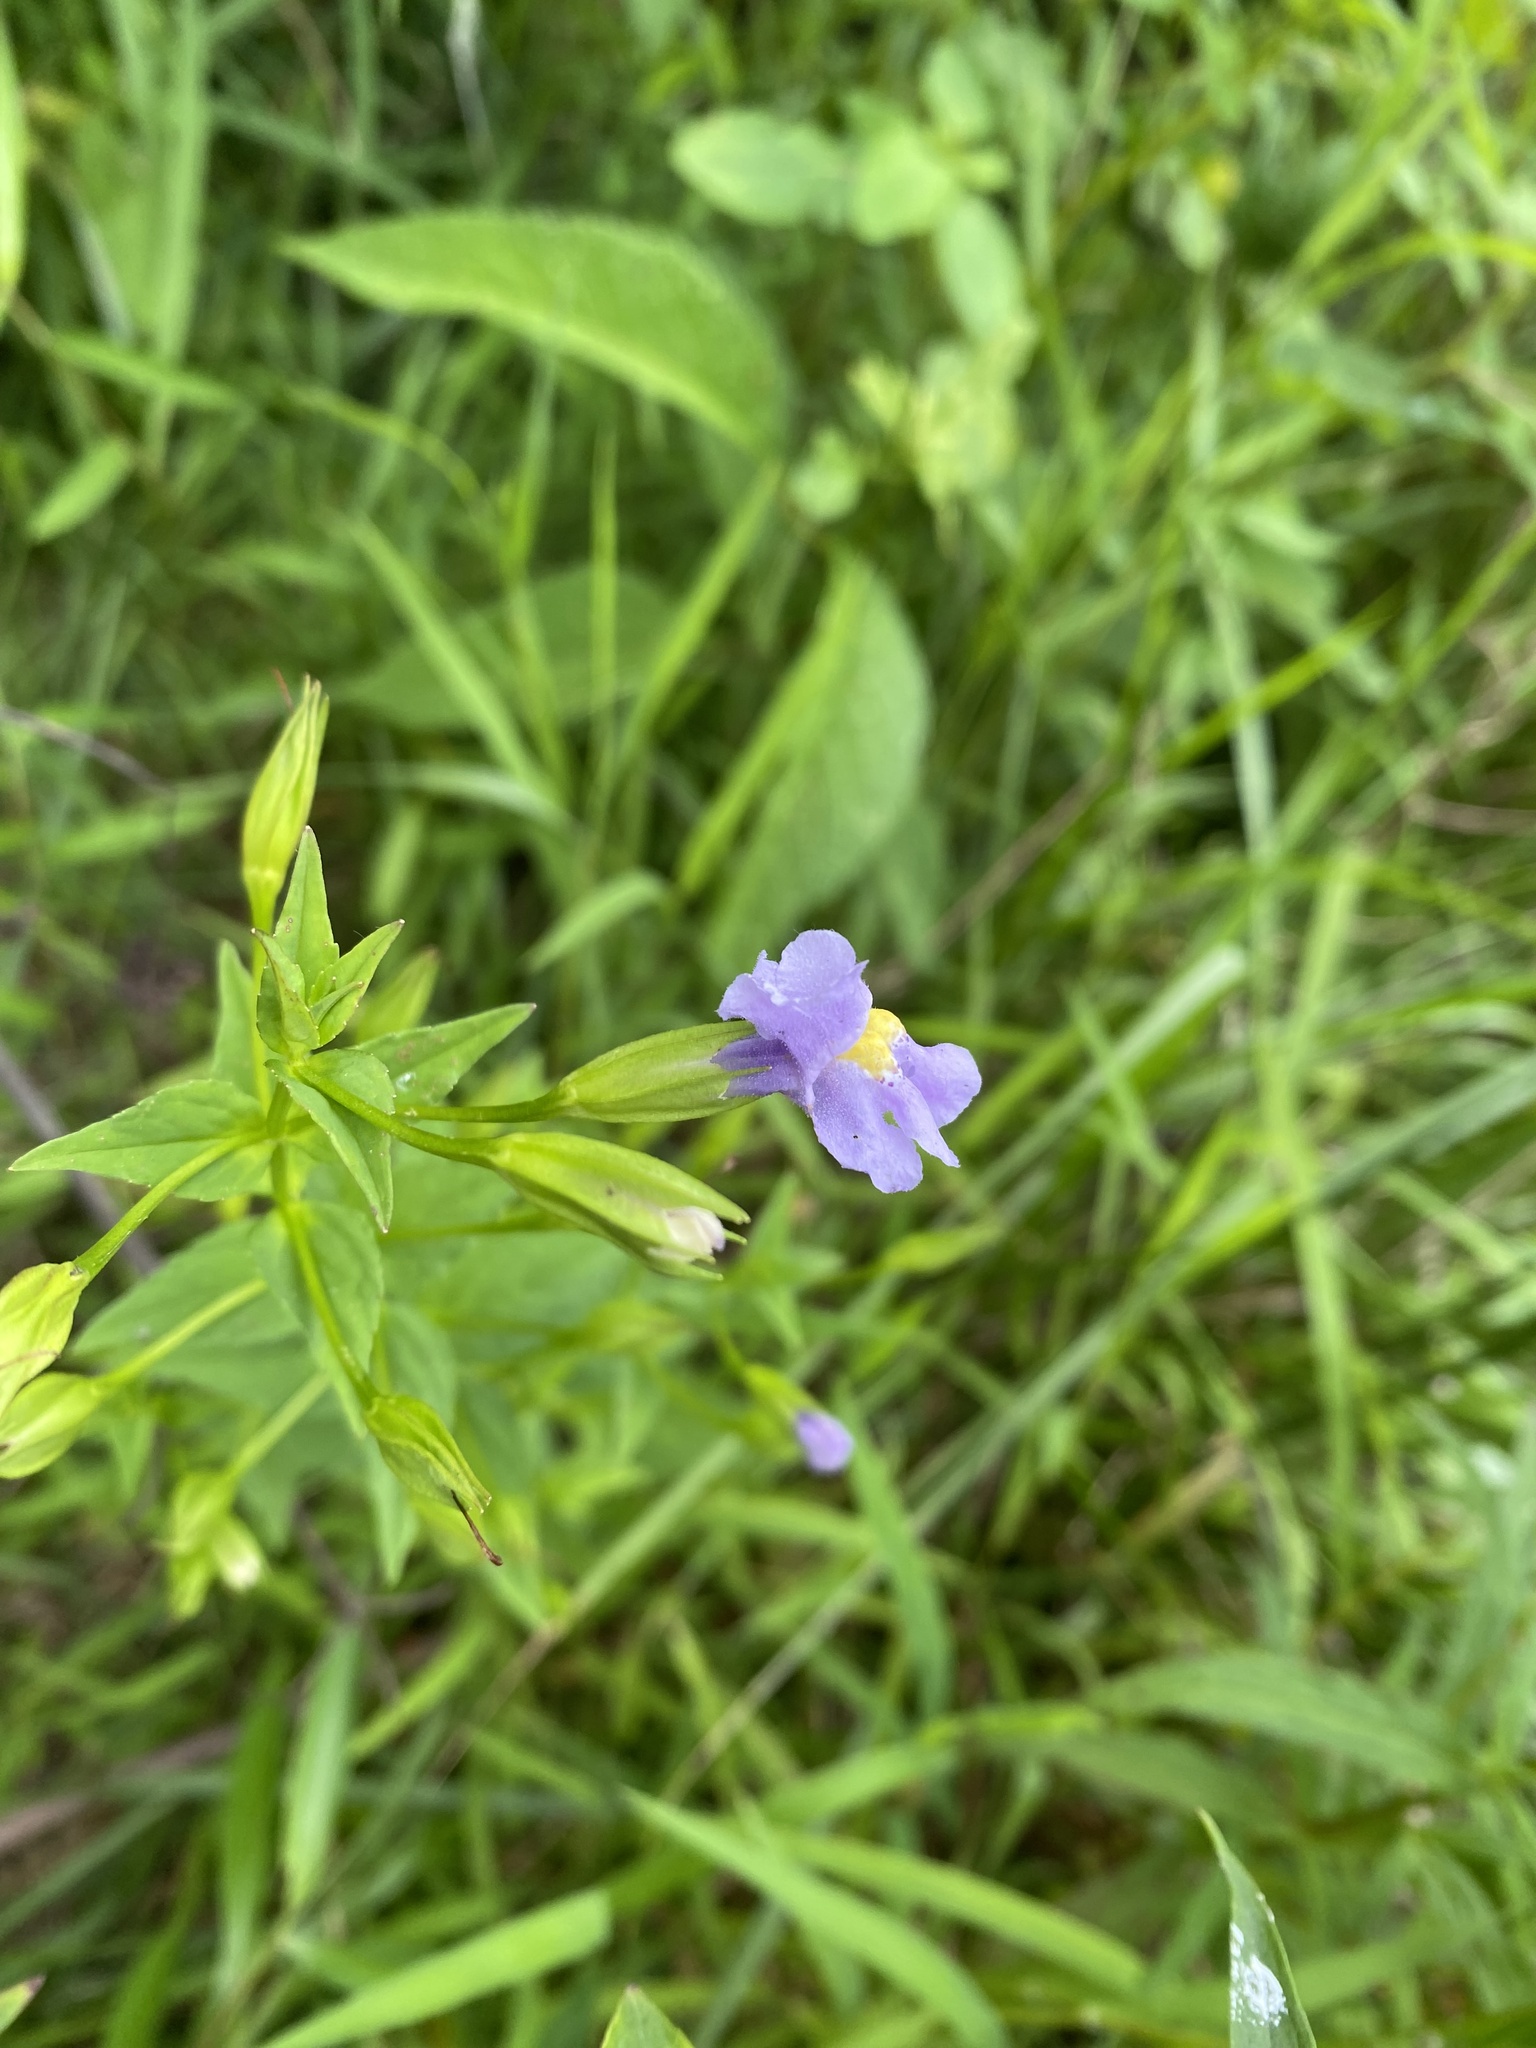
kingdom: Plantae
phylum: Tracheophyta
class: Magnoliopsida
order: Lamiales
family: Phrymaceae
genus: Mimulus
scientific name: Mimulus ringens
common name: Allegheny monkeyflower
